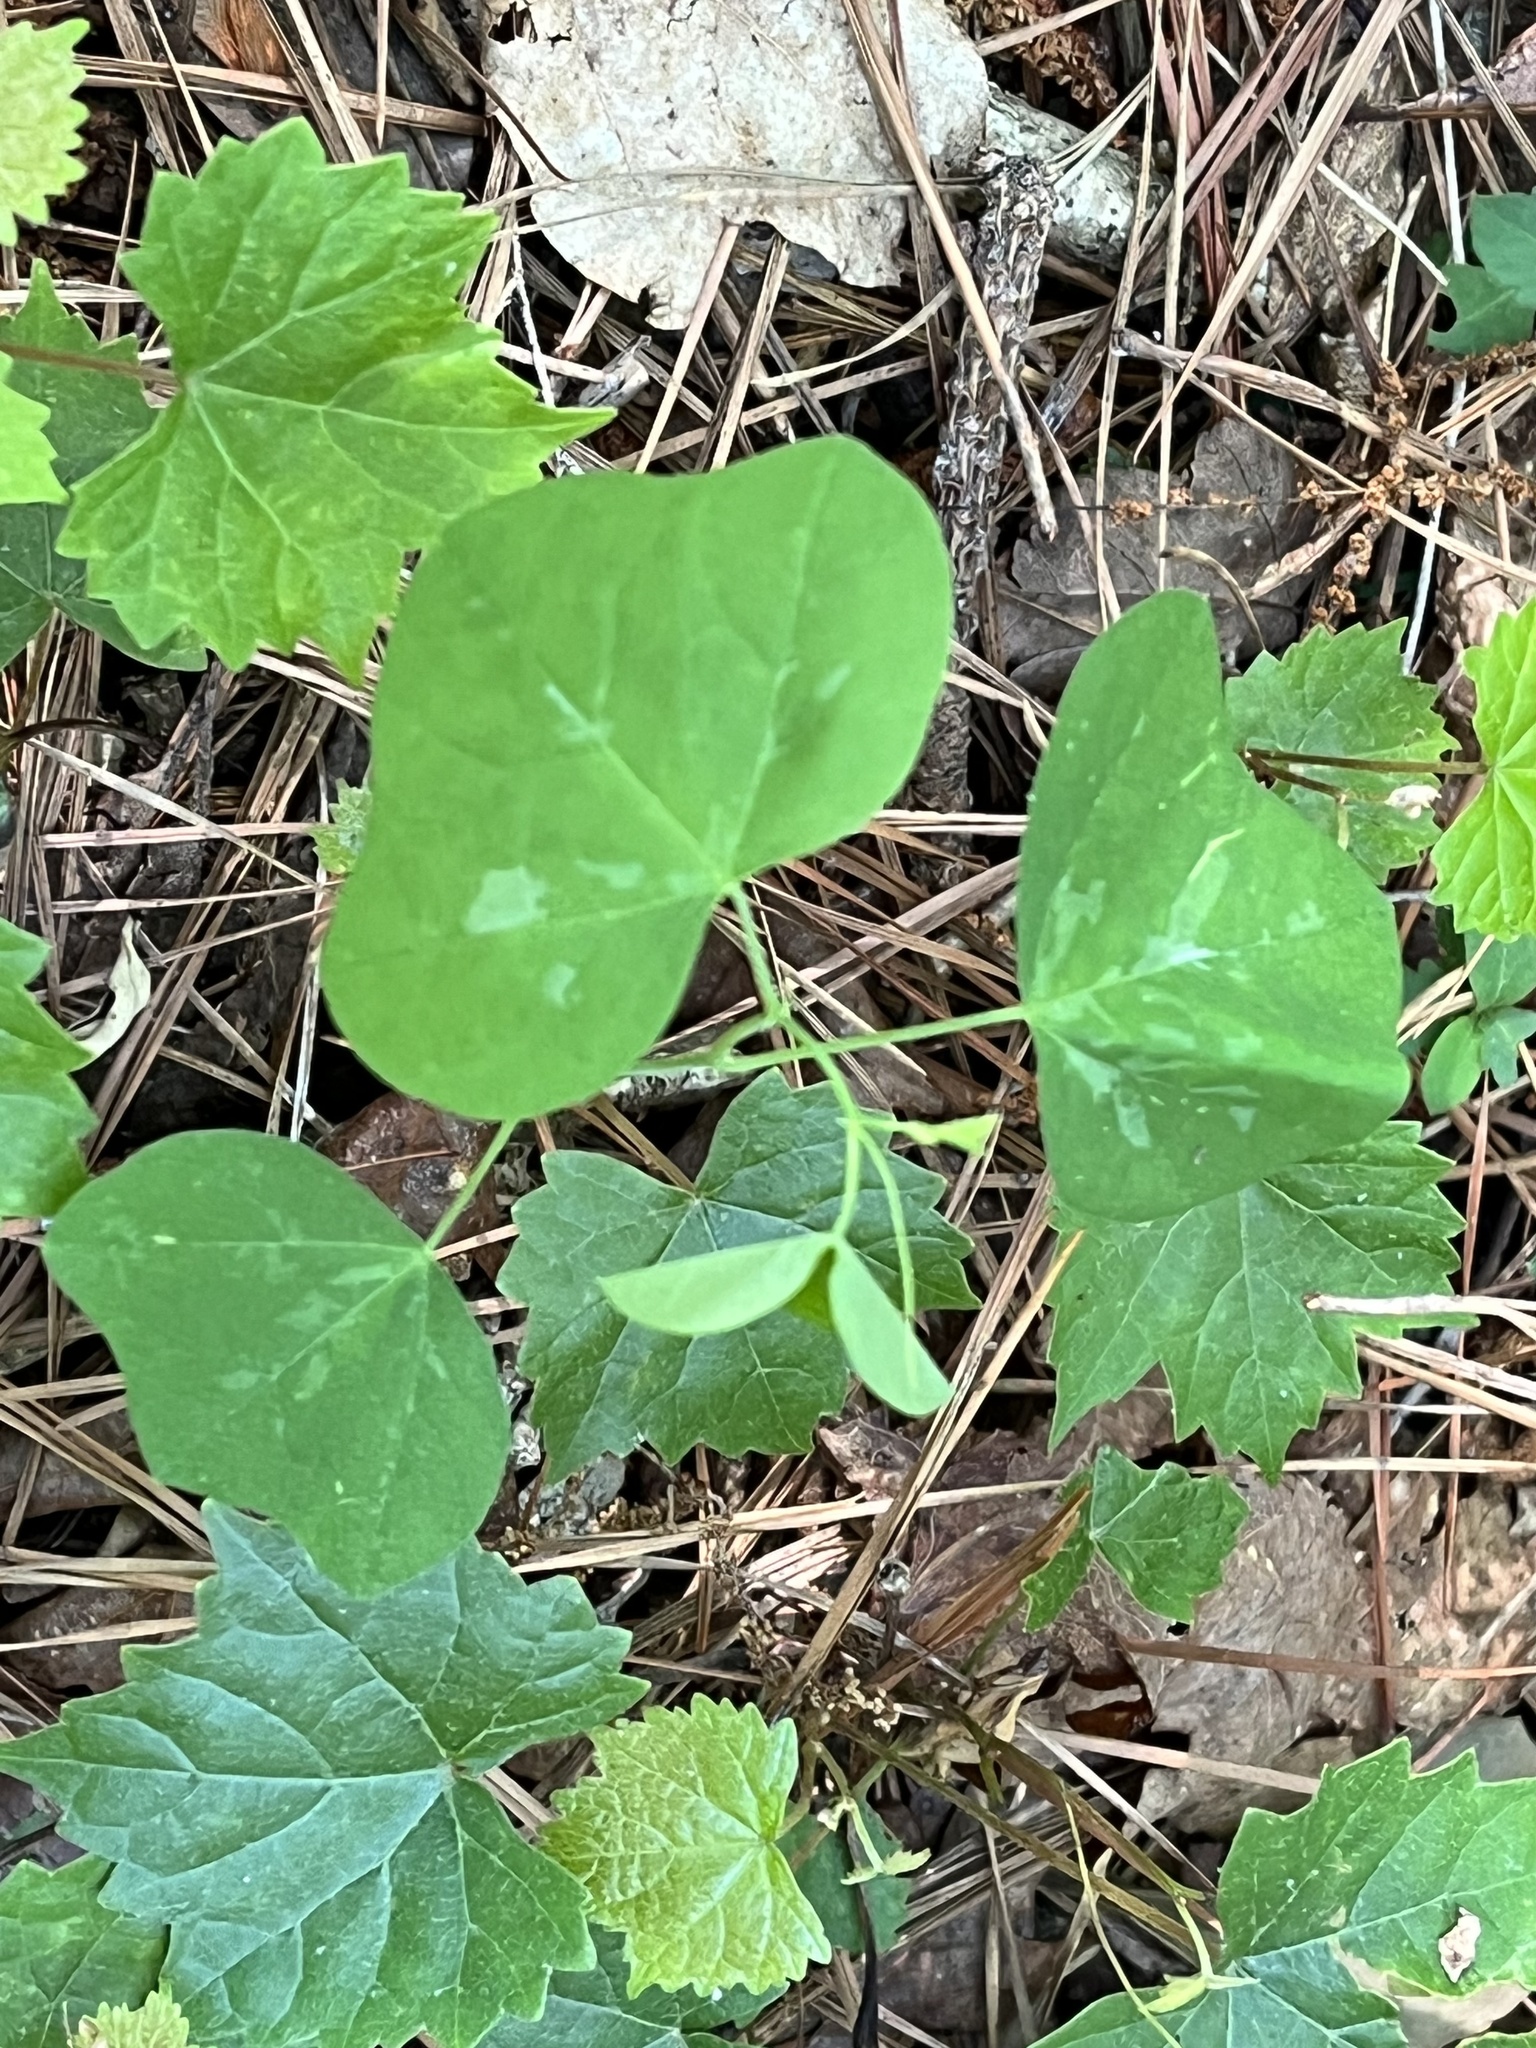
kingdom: Plantae
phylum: Tracheophyta
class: Magnoliopsida
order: Malpighiales
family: Passifloraceae
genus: Passiflora
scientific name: Passiflora lutea
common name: Yellow passionflower
